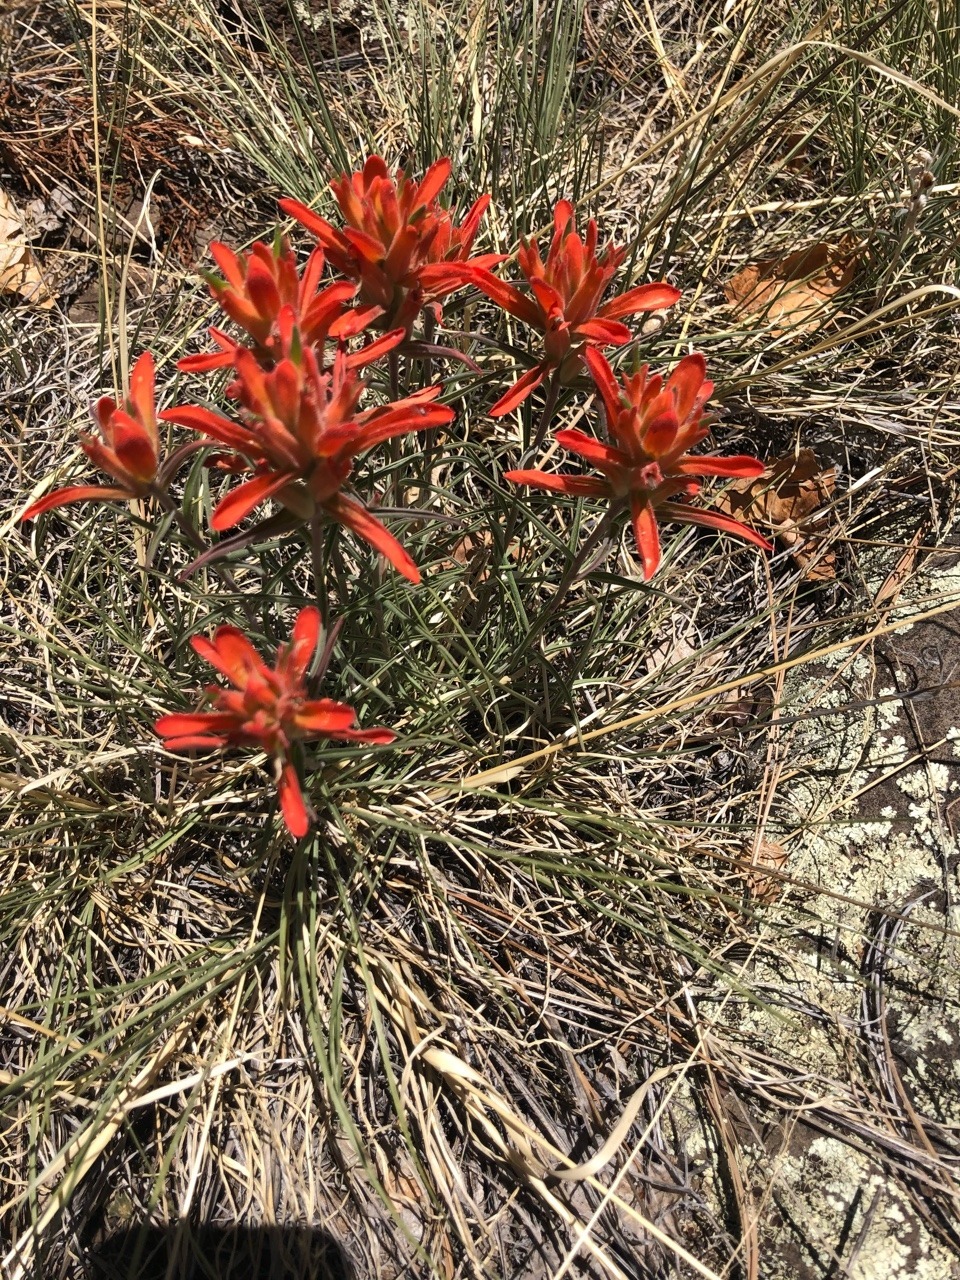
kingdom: Plantae
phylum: Tracheophyta
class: Magnoliopsida
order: Lamiales
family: Orobanchaceae
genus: Castilleja
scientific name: Castilleja integra
